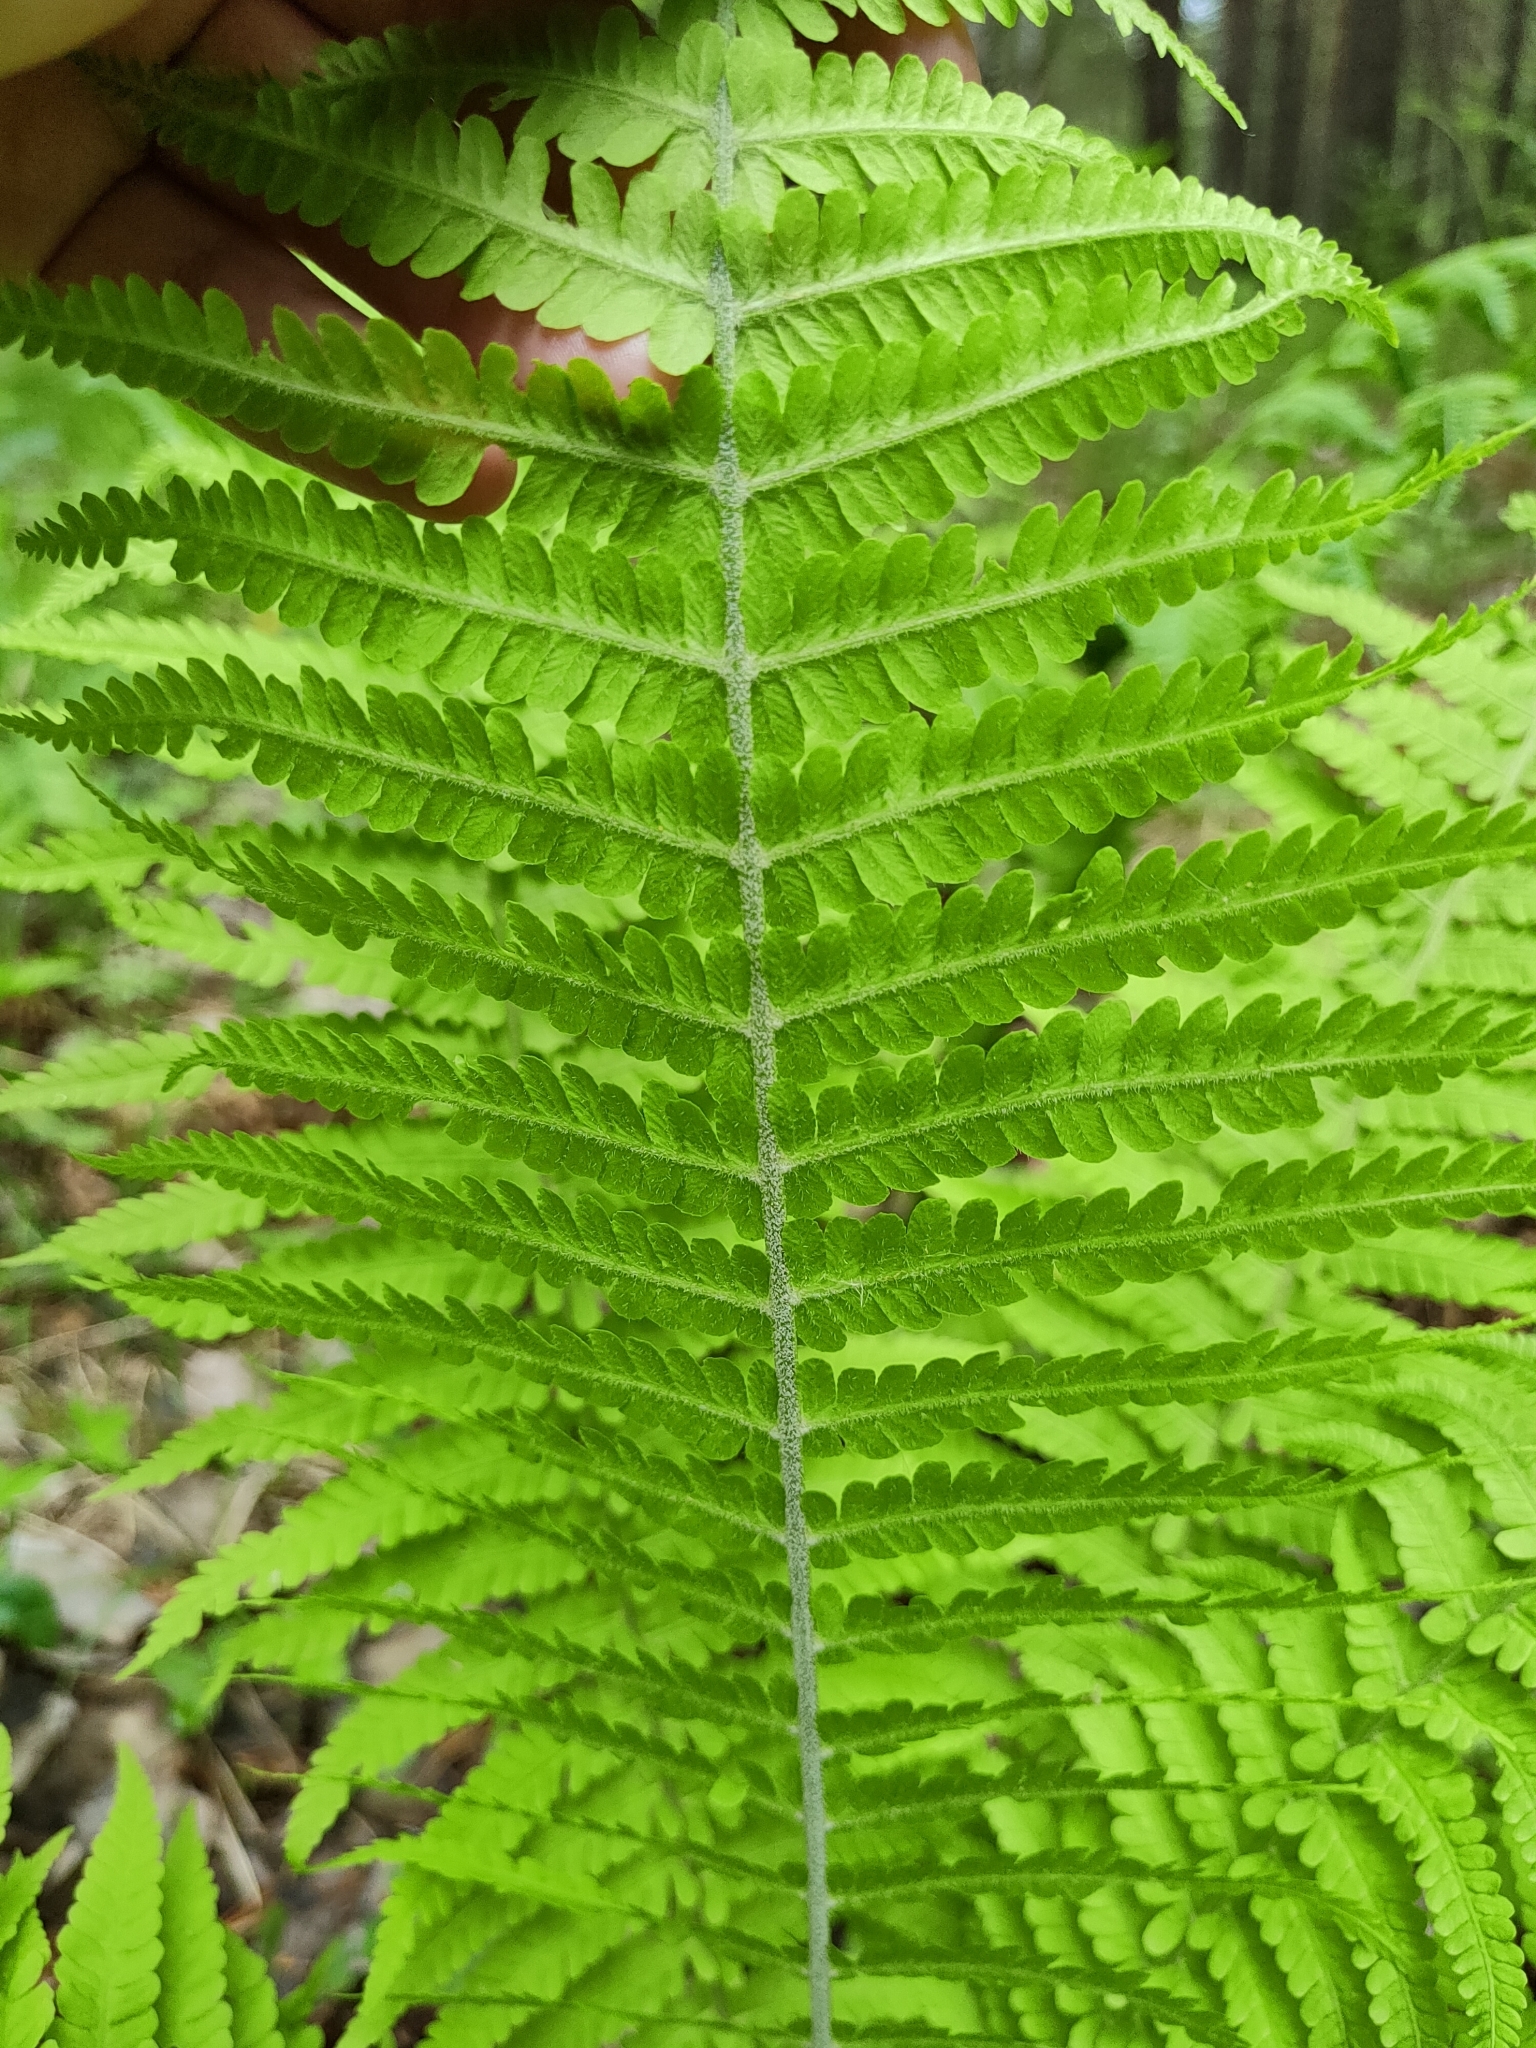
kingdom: Plantae
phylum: Tracheophyta
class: Polypodiopsida
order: Polypodiales
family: Onocleaceae
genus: Matteuccia
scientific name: Matteuccia struthiopteris
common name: Ostrich fern
